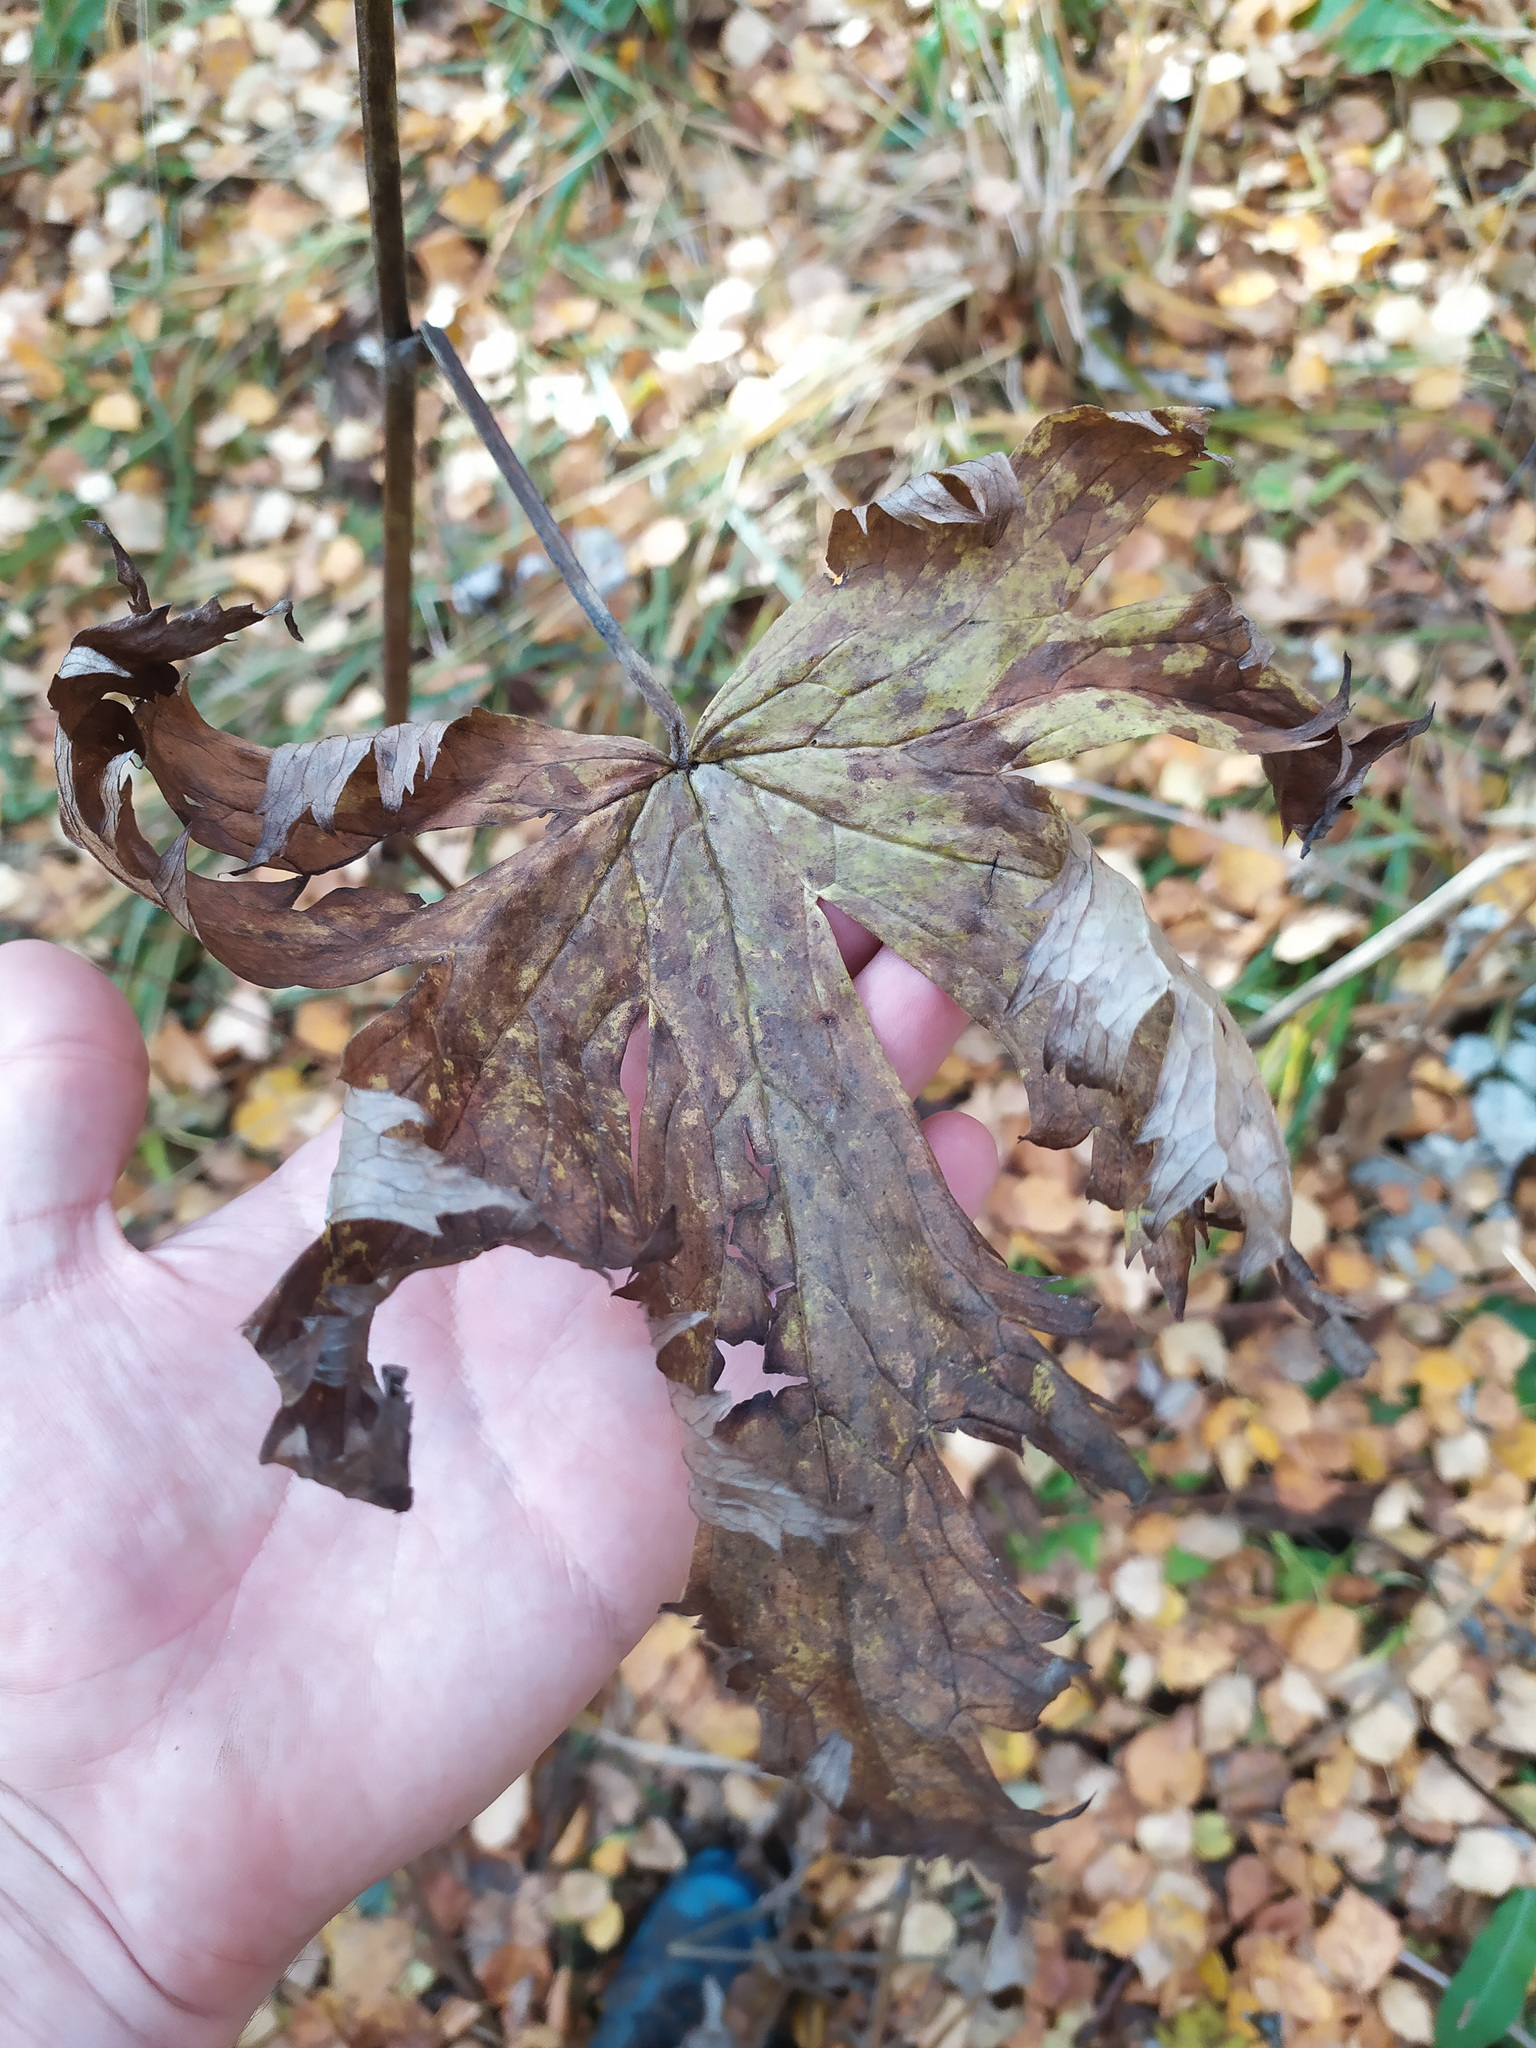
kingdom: Plantae
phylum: Tracheophyta
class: Magnoliopsida
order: Ranunculales
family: Ranunculaceae
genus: Aconitum
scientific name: Aconitum septentrionale
